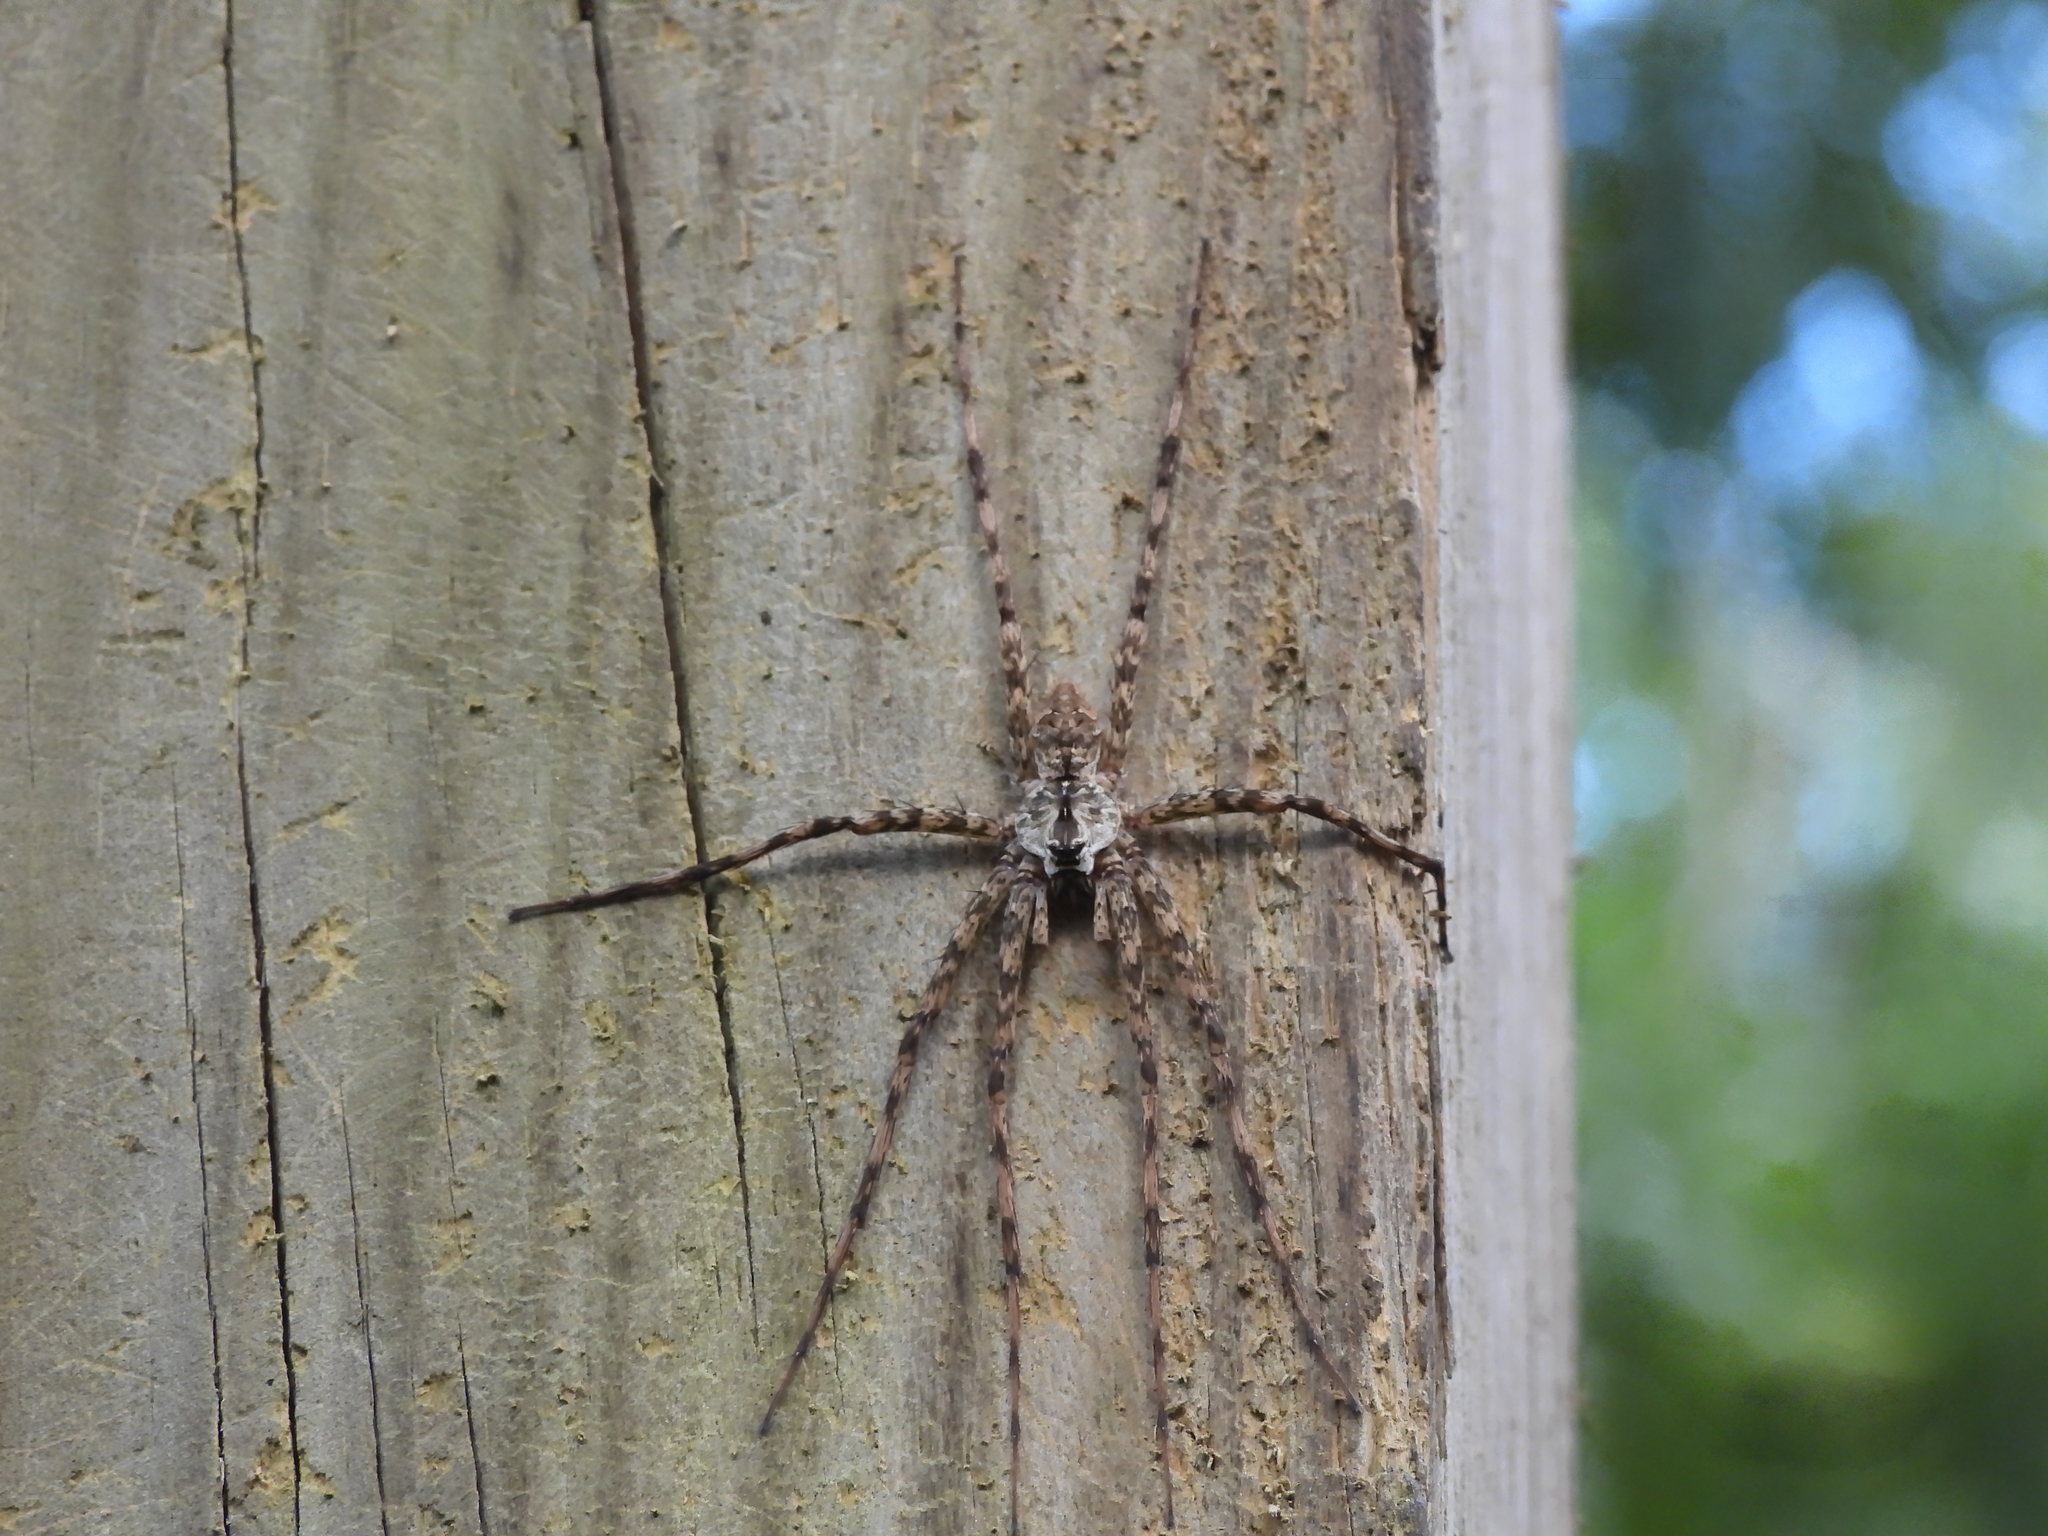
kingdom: Animalia
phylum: Arthropoda
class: Arachnida
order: Araneae
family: Pisauridae
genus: Dolomedes
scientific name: Dolomedes albineus
